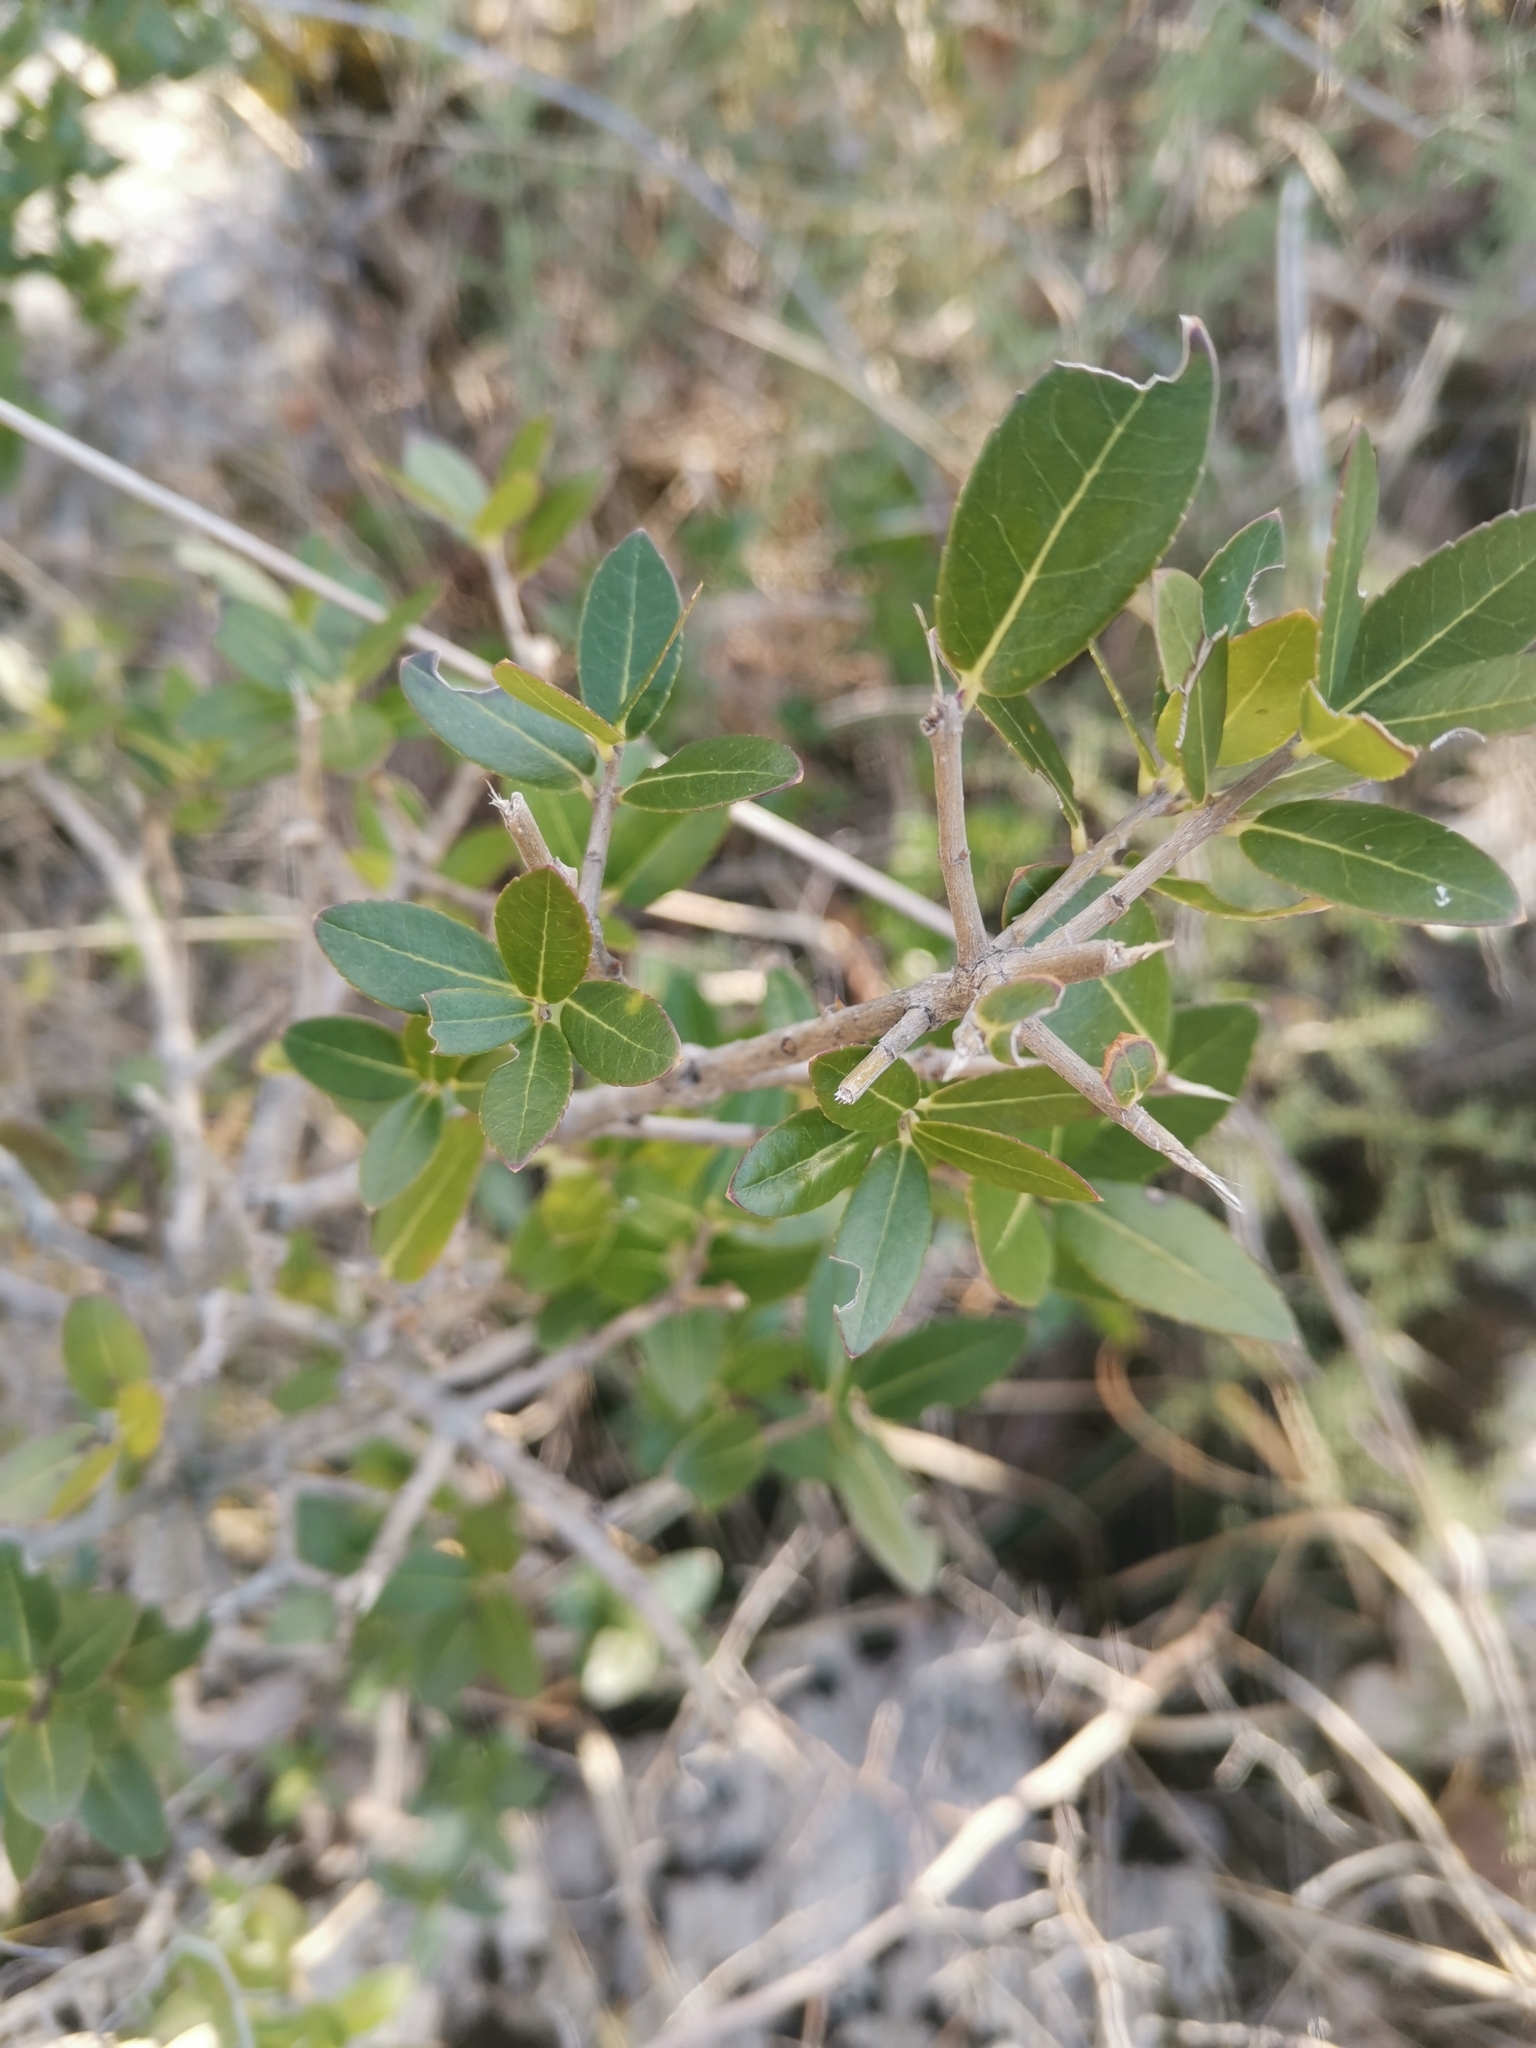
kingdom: Plantae
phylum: Tracheophyta
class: Magnoliopsida
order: Lamiales
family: Oleaceae
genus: Phillyrea
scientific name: Phillyrea latifolia
